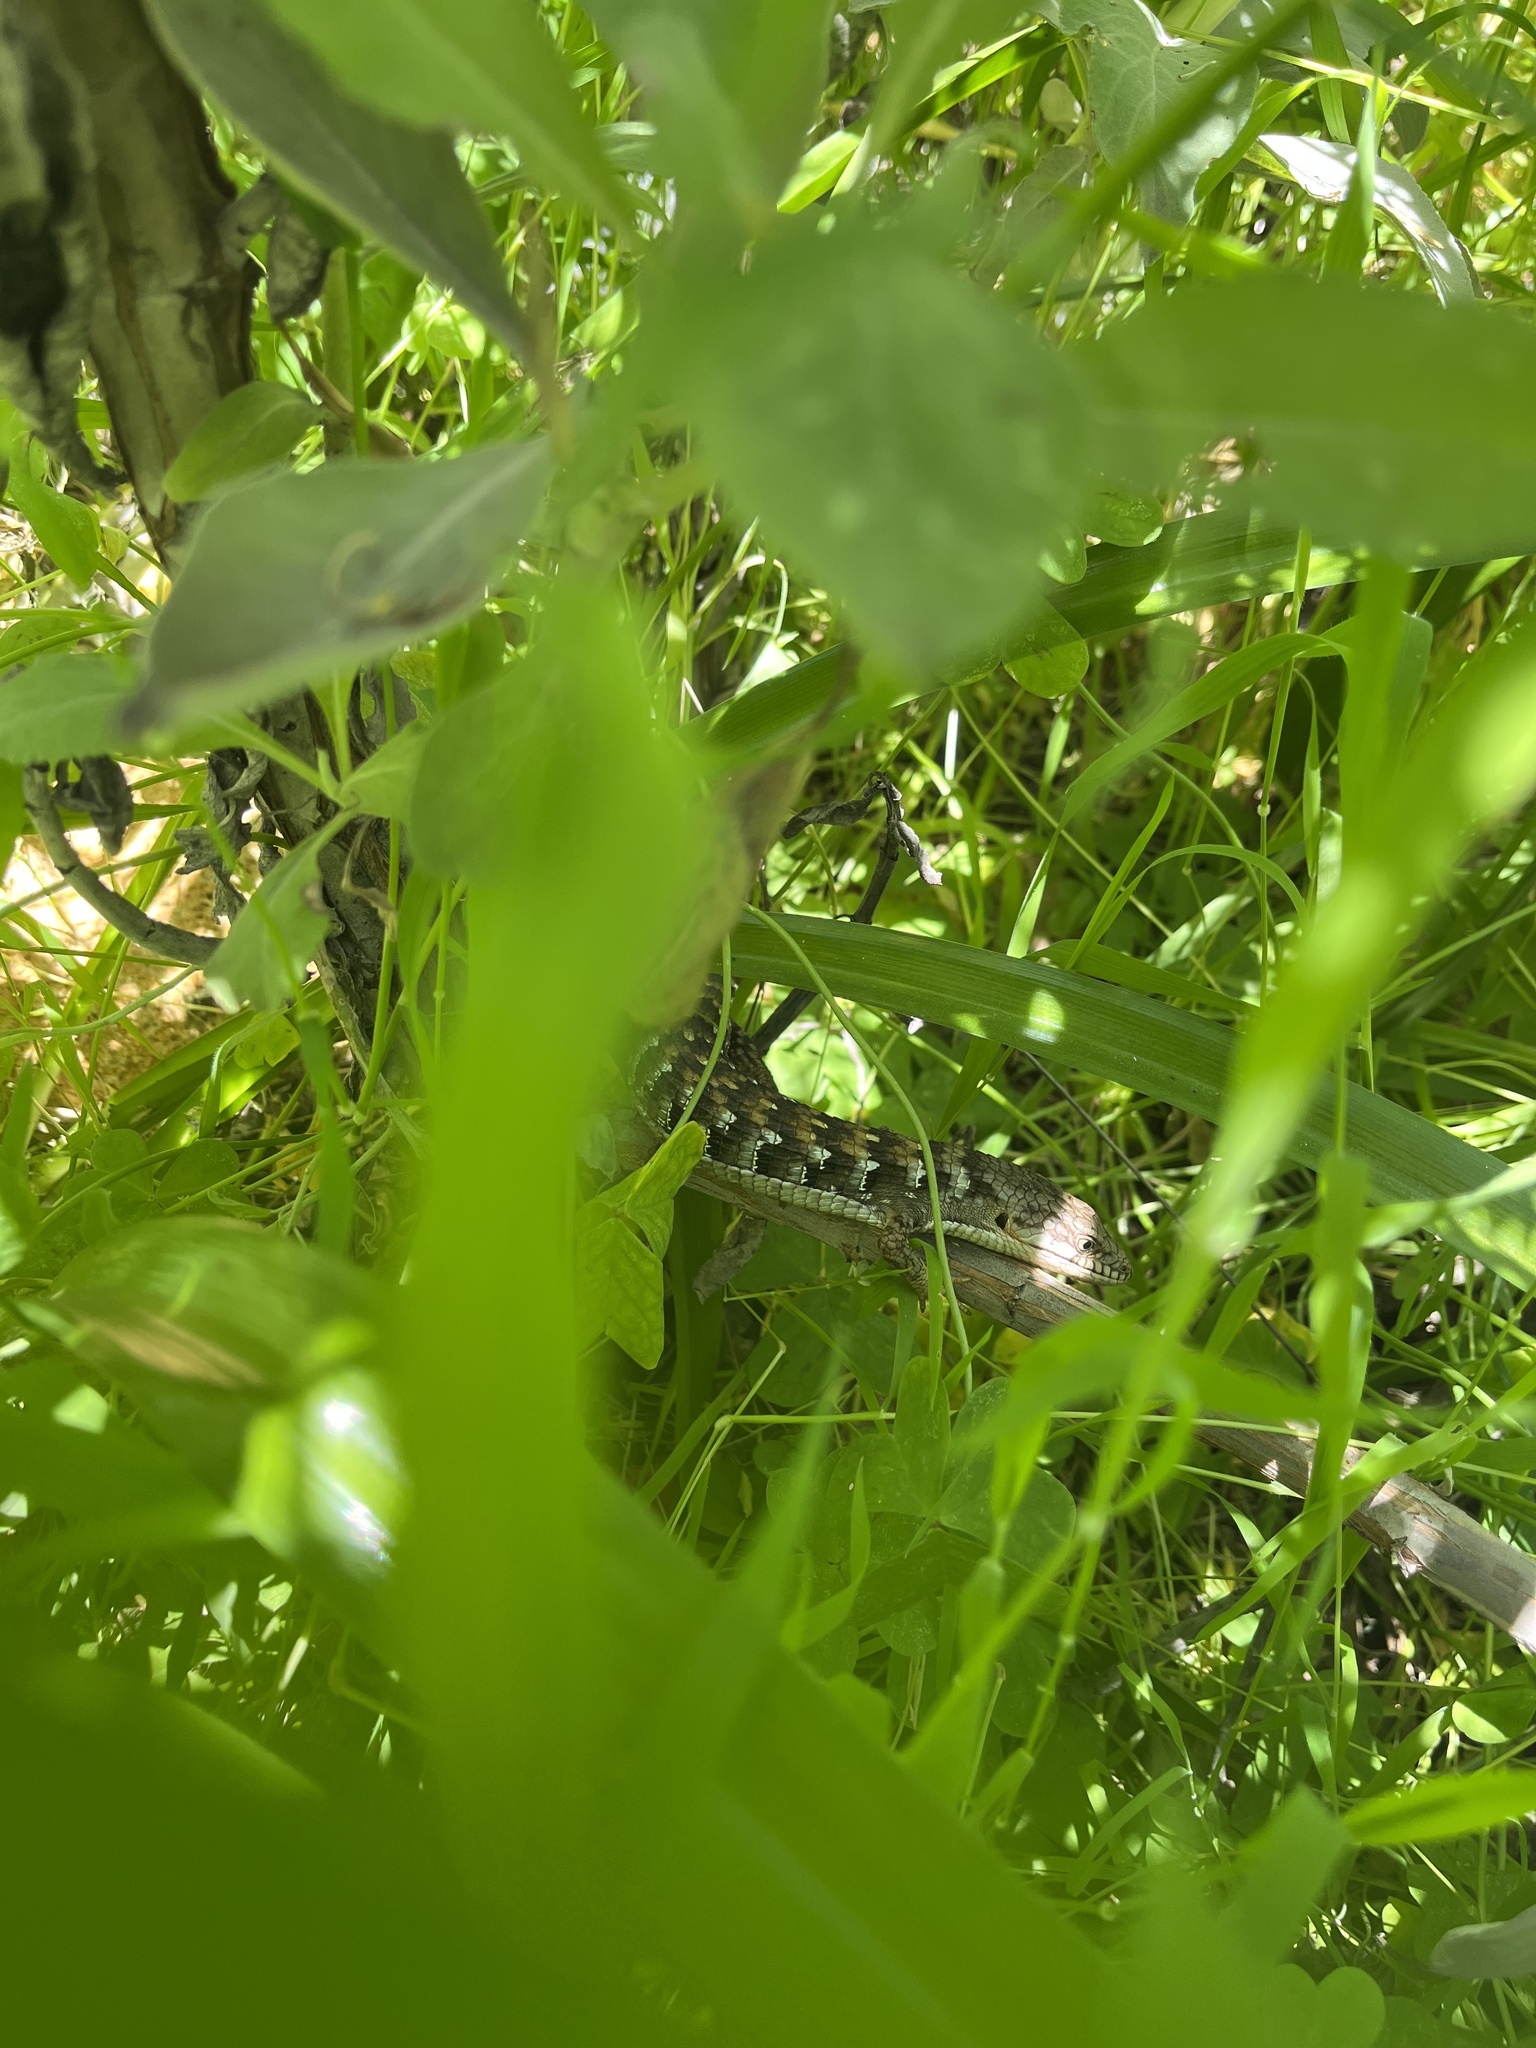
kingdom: Animalia
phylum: Chordata
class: Squamata
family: Anguidae
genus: Elgaria
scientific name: Elgaria multicarinata
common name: Southern alligator lizard
